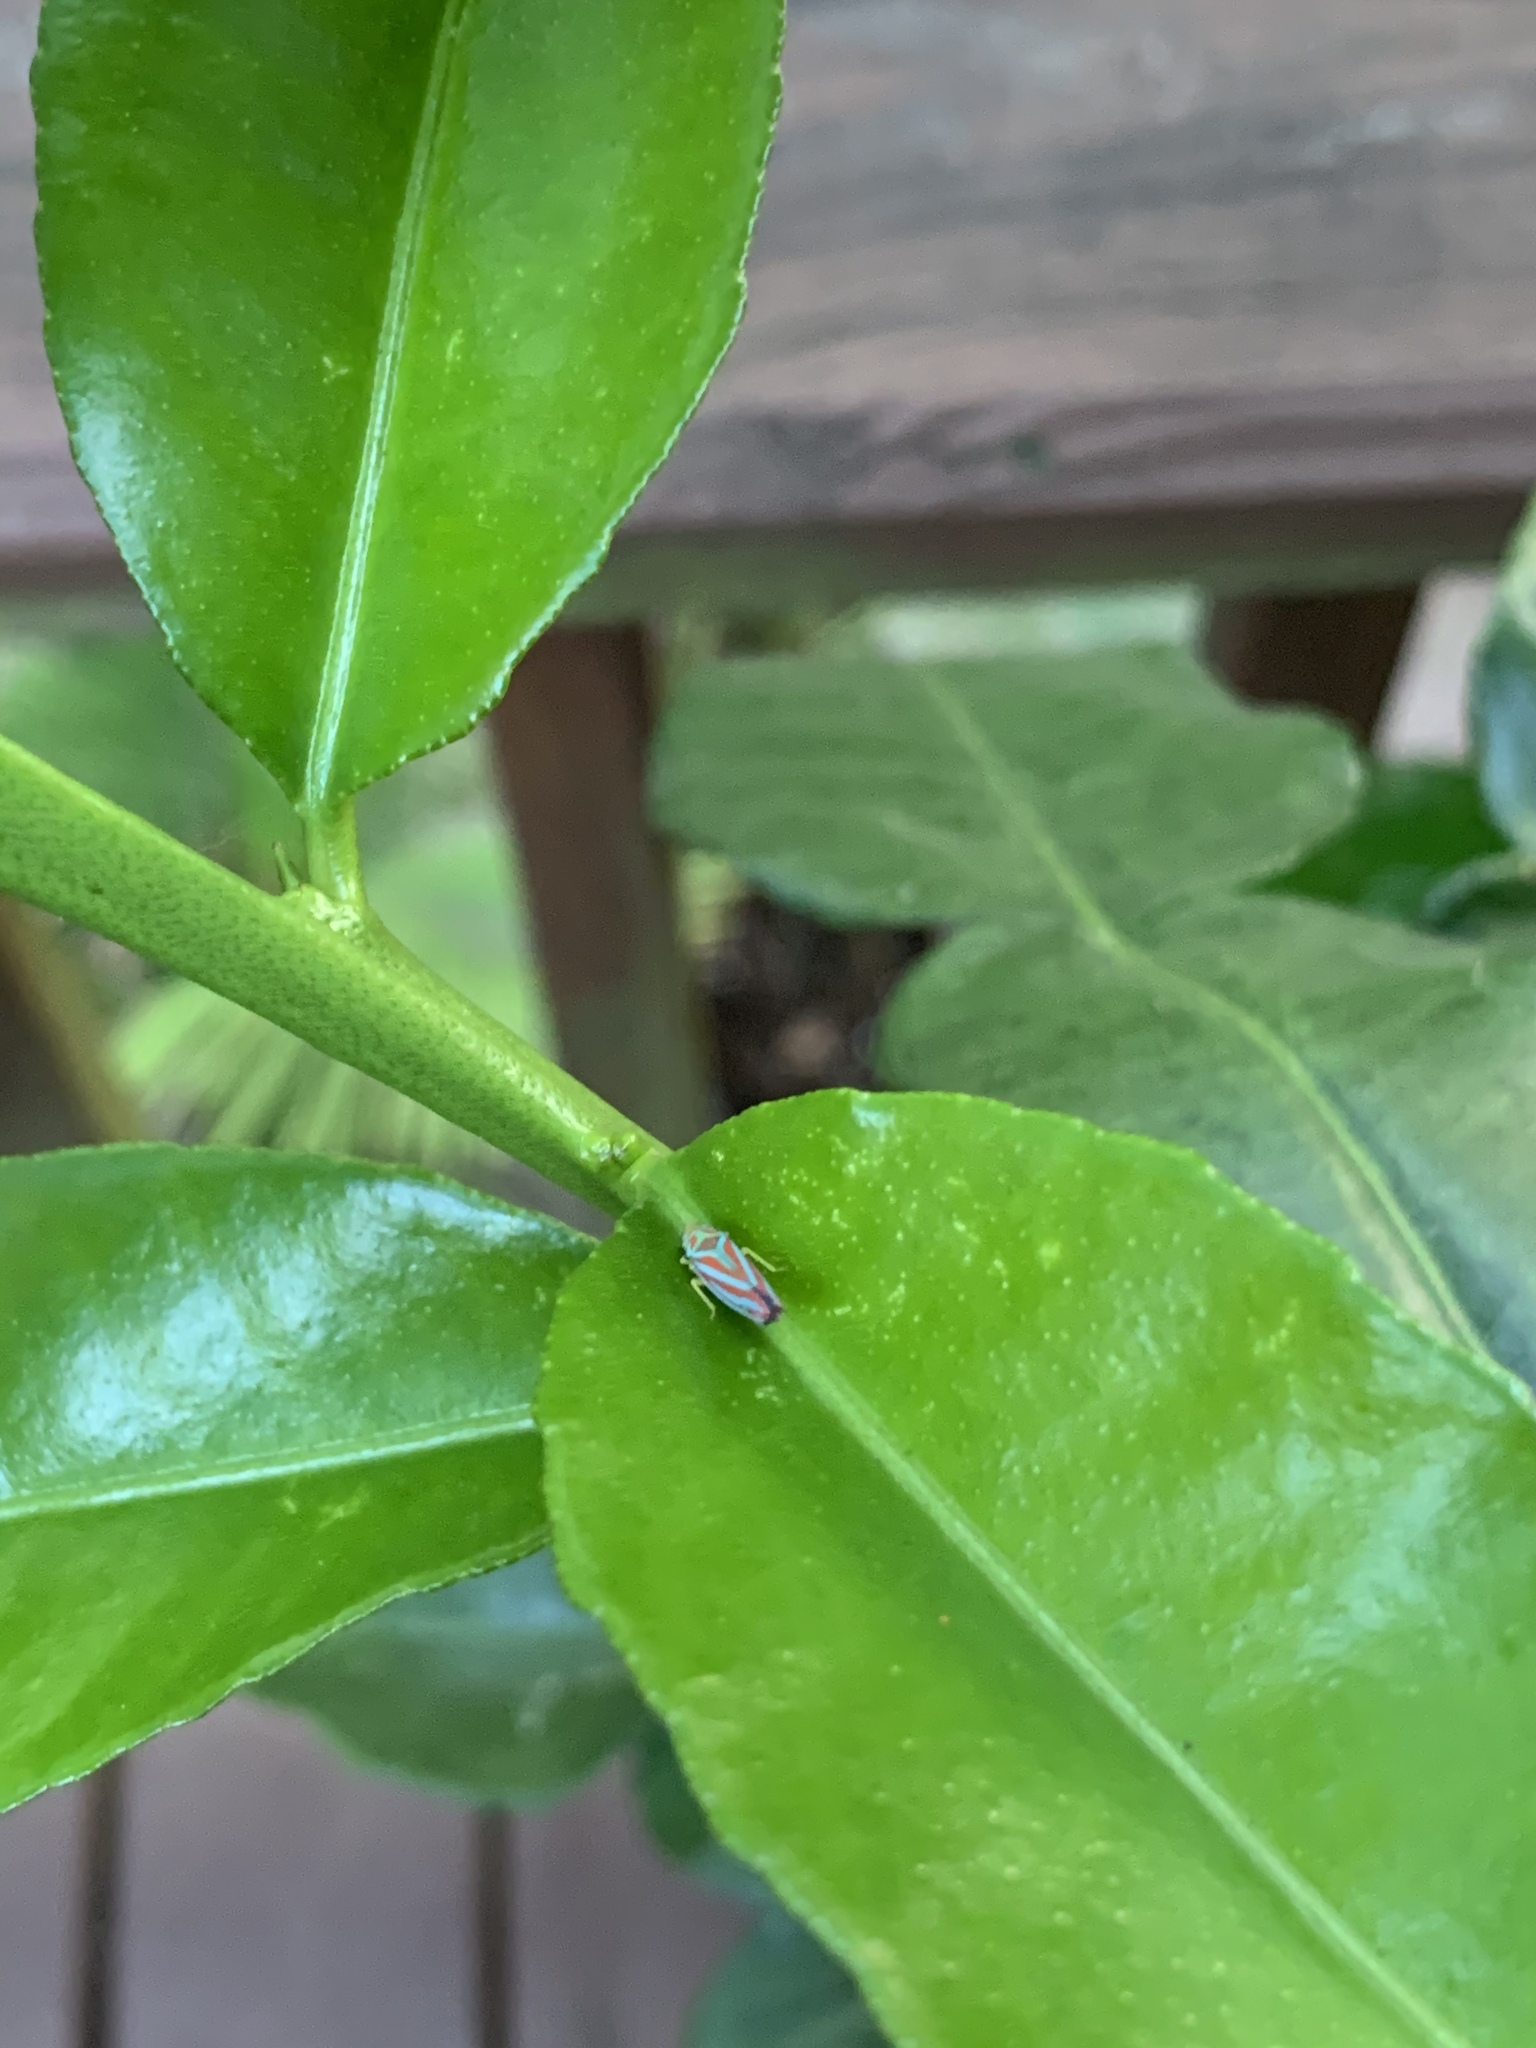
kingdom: Animalia
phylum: Arthropoda
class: Insecta
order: Hemiptera
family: Cicadellidae
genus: Graphocephala
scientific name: Graphocephala coccinea
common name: Candy-striped leafhopper
